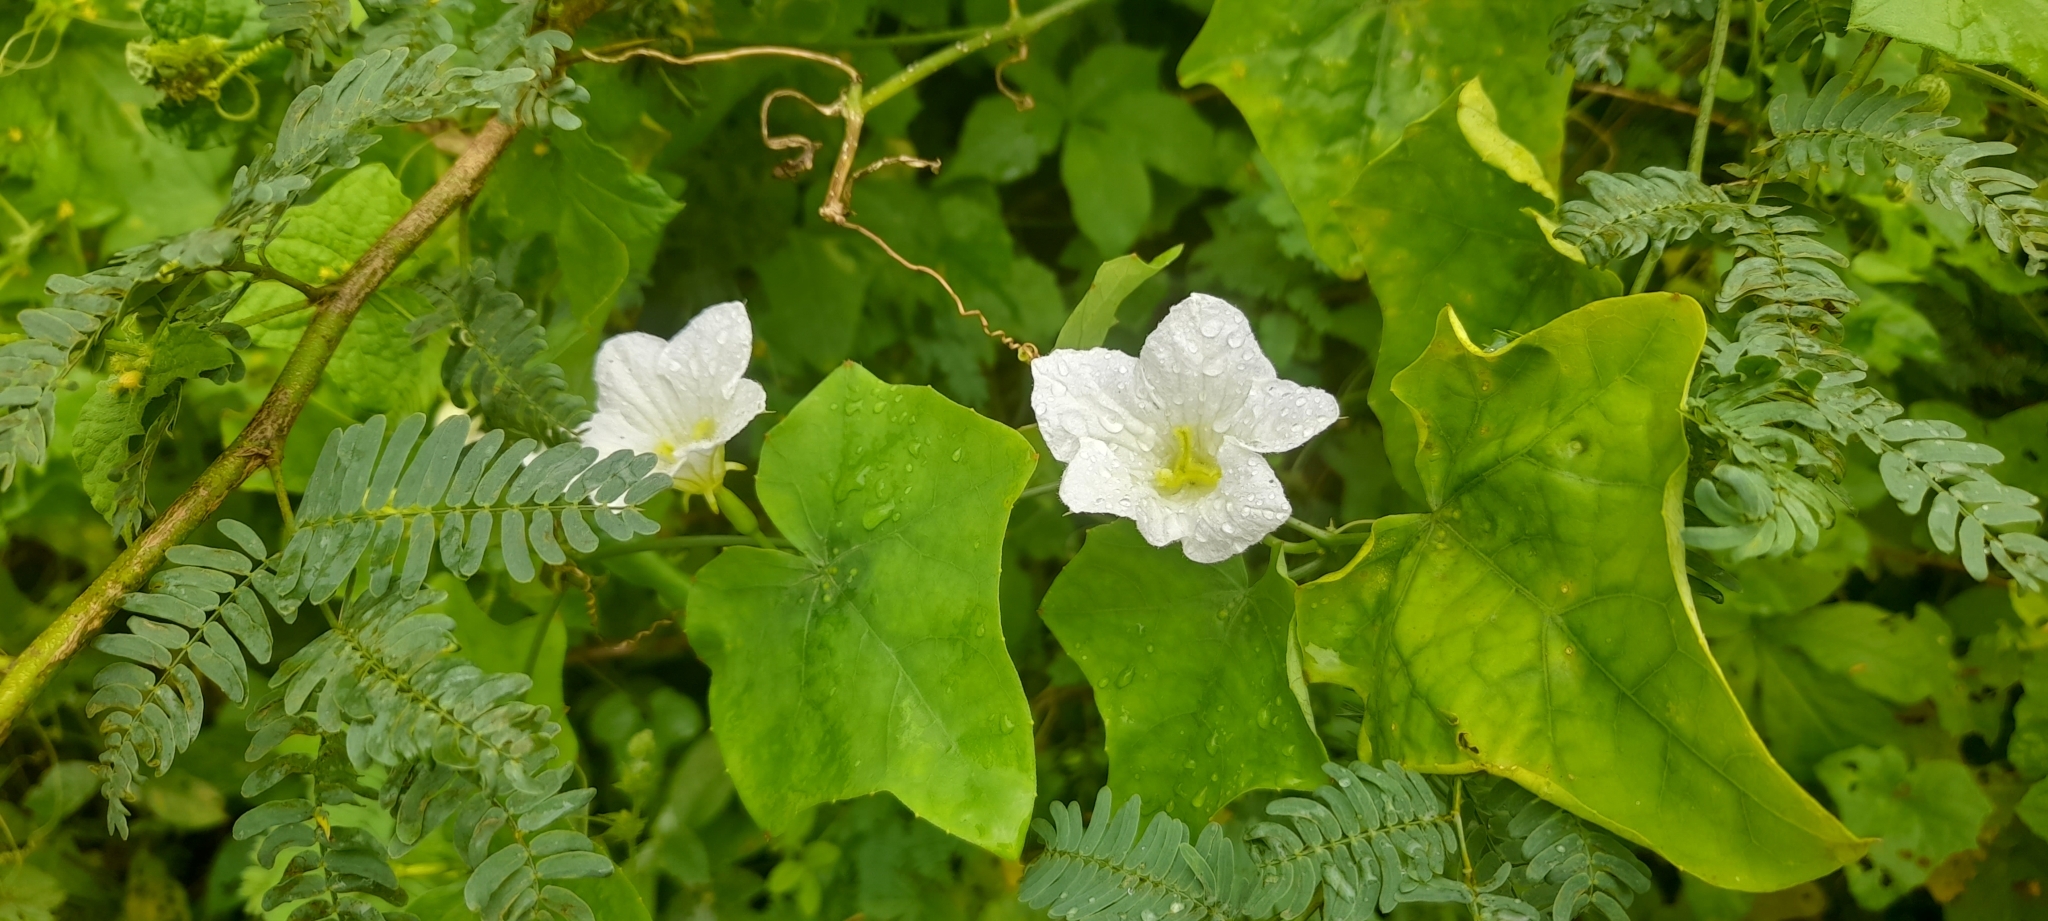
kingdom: Plantae
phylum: Tracheophyta
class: Magnoliopsida
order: Cucurbitales
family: Cucurbitaceae
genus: Coccinia
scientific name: Coccinia grandis
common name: Ivy gourd
